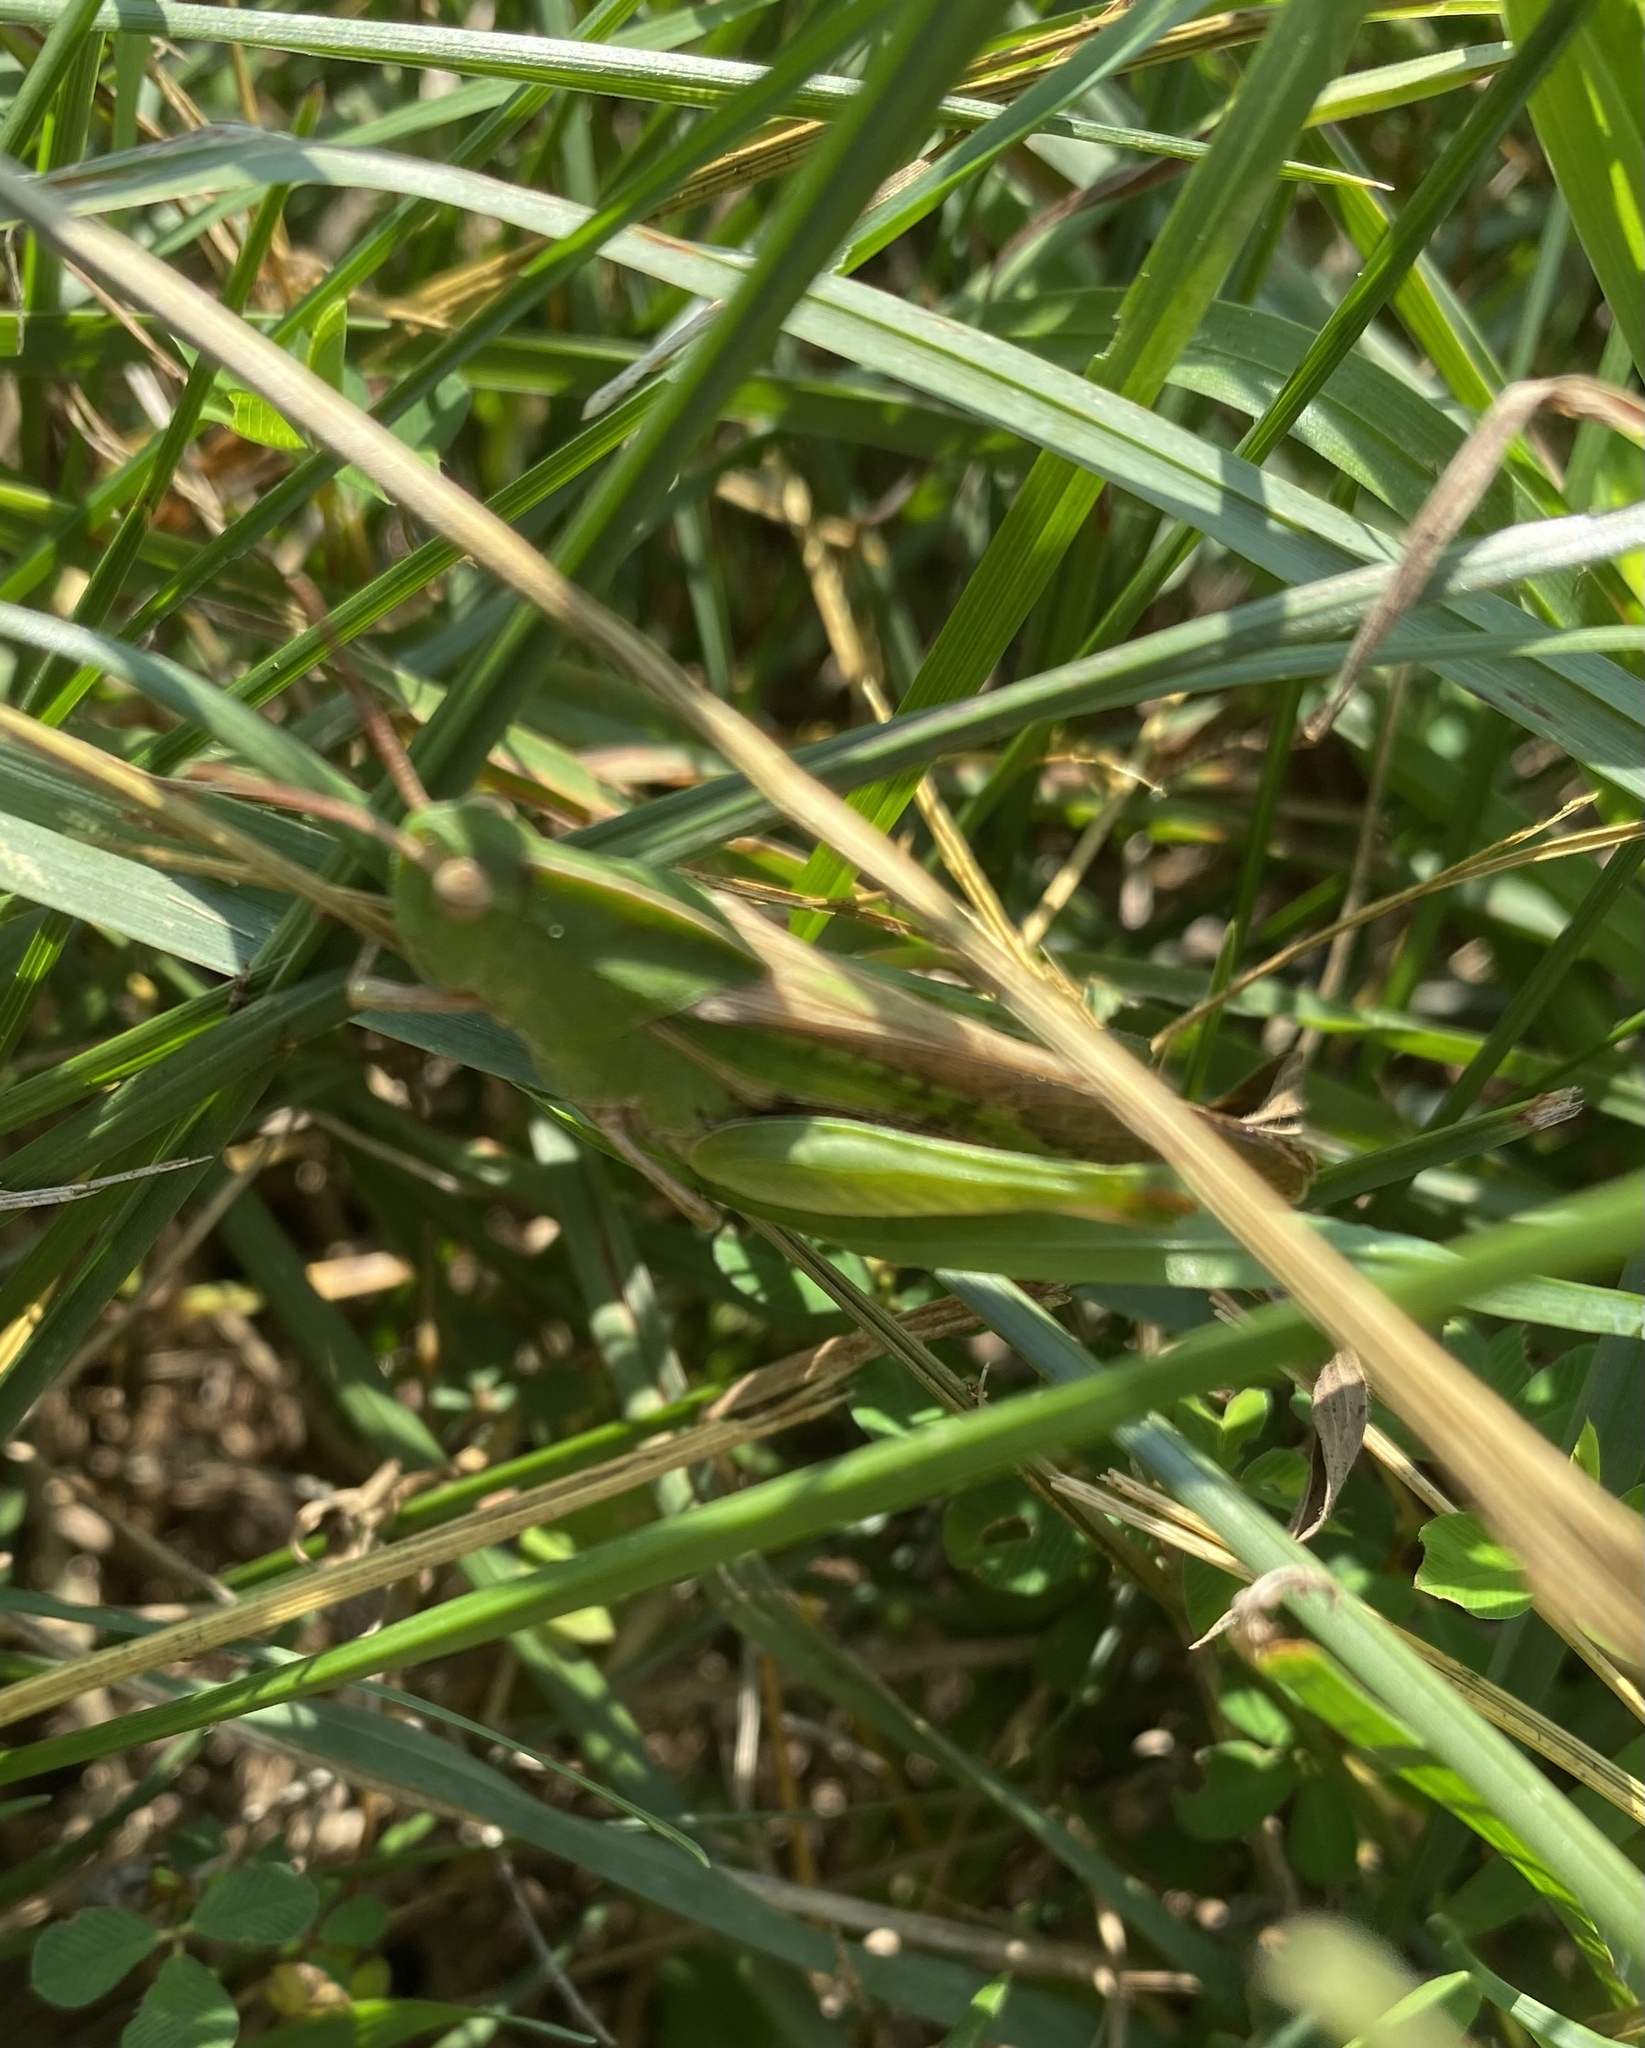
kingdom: Animalia
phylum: Arthropoda
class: Insecta
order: Orthoptera
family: Acrididae
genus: Chortophaga
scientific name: Chortophaga viridifasciata
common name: Green-striped grasshopper
